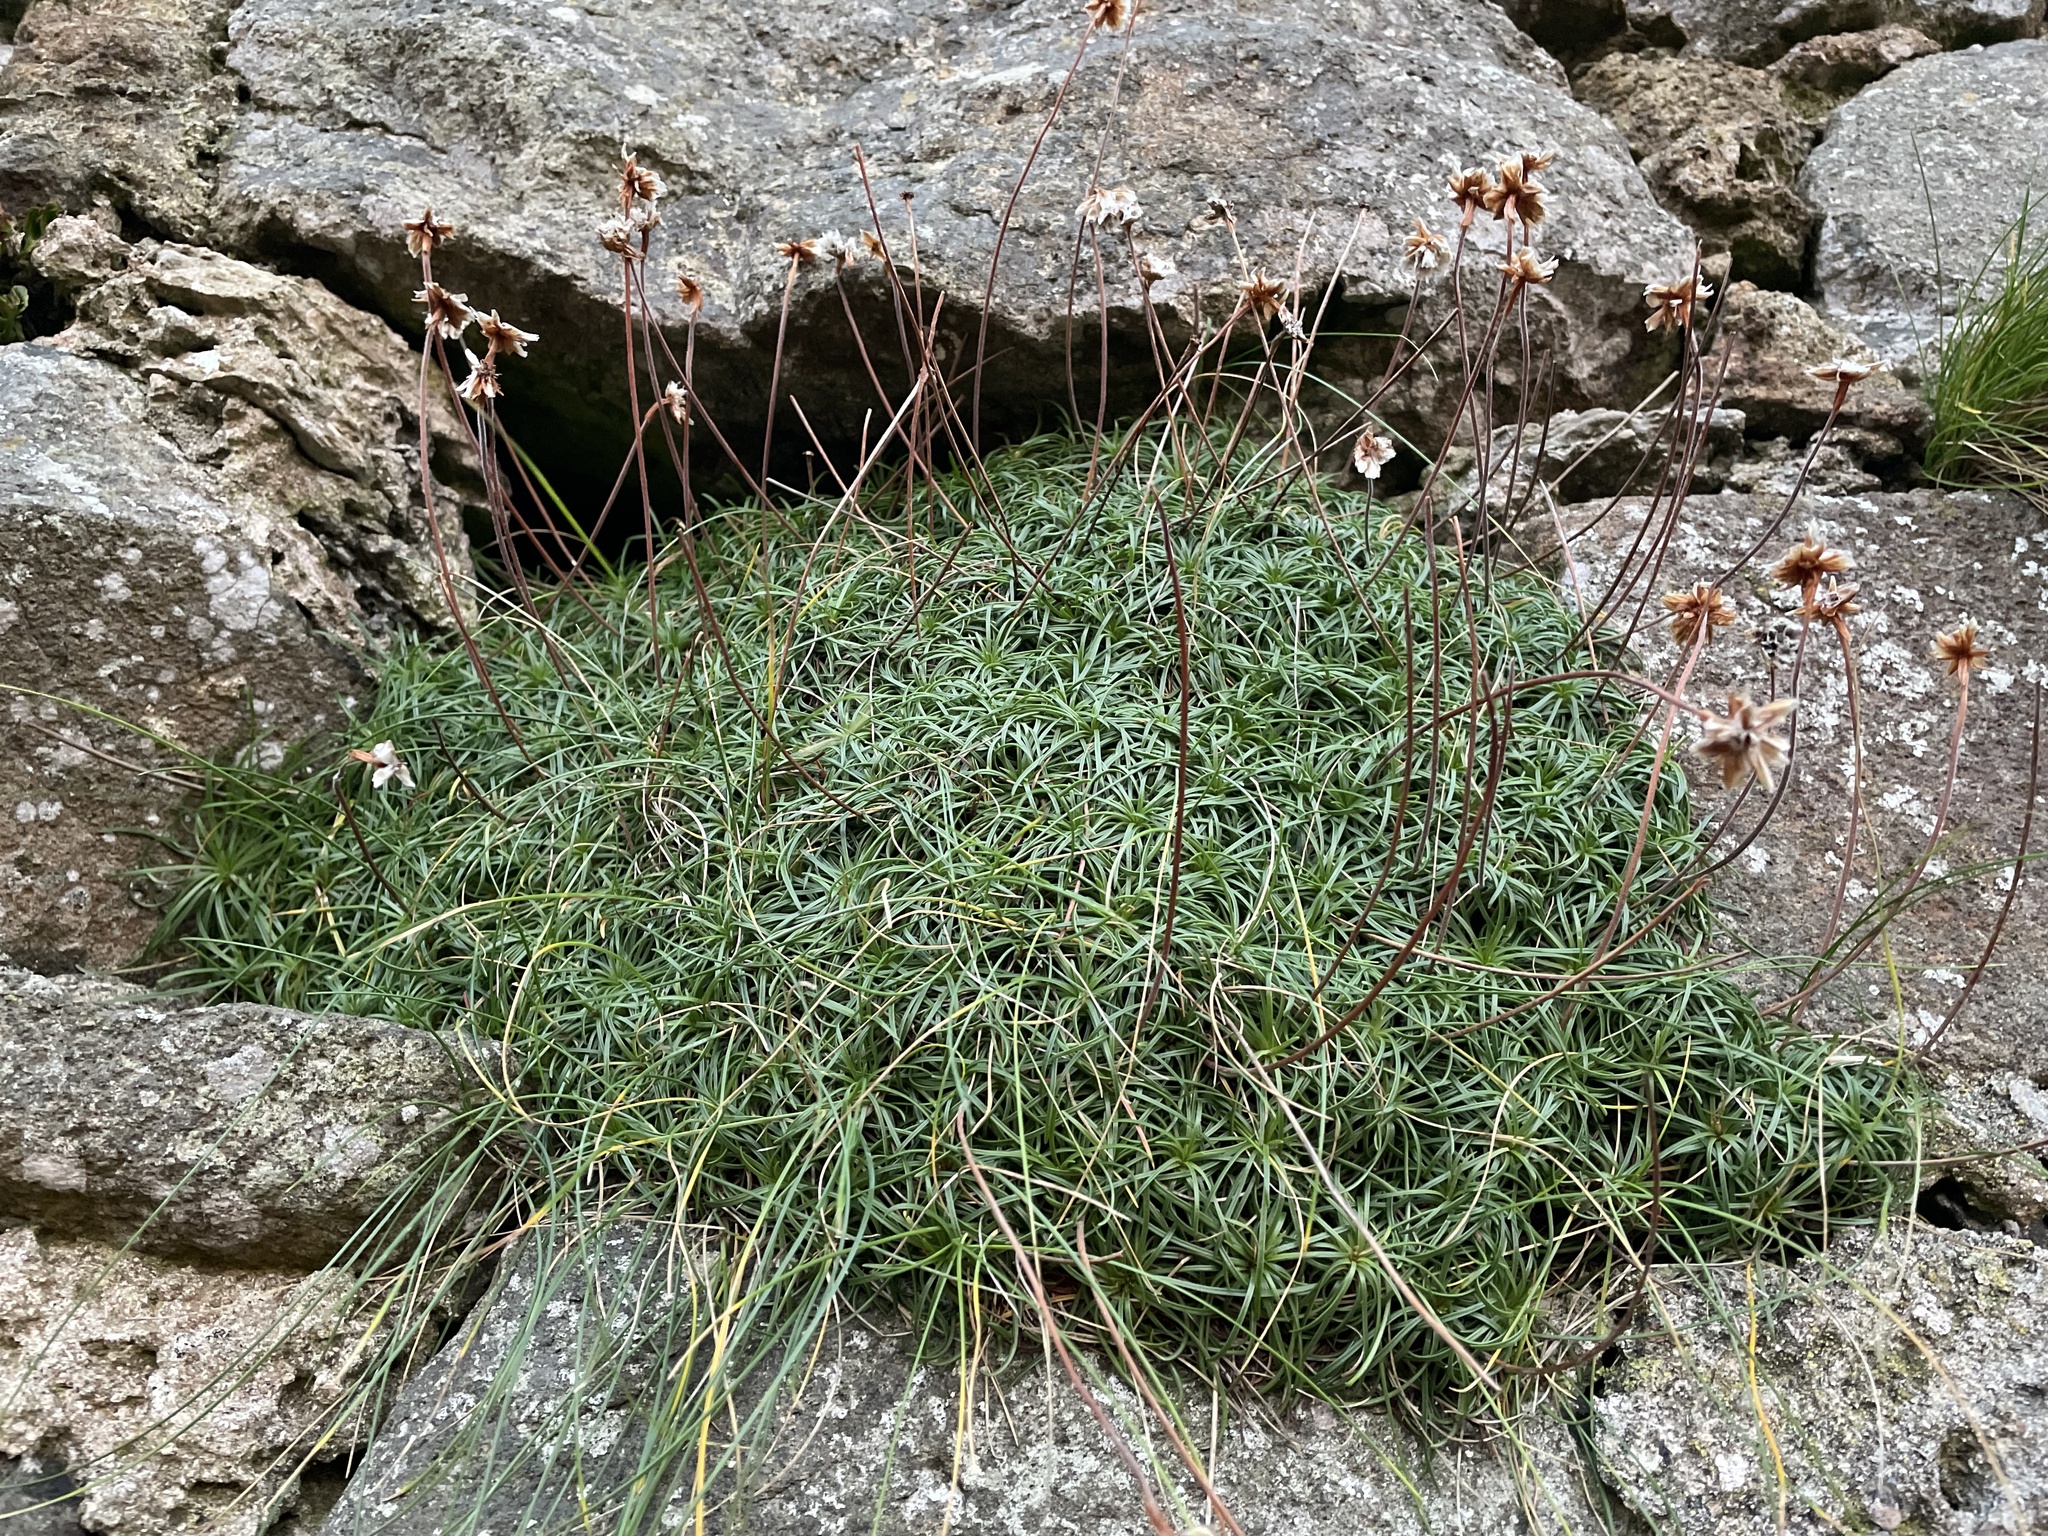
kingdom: Plantae
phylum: Tracheophyta
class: Magnoliopsida
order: Caryophyllales
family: Plumbaginaceae
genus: Armeria
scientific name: Armeria maritima
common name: Thrift
